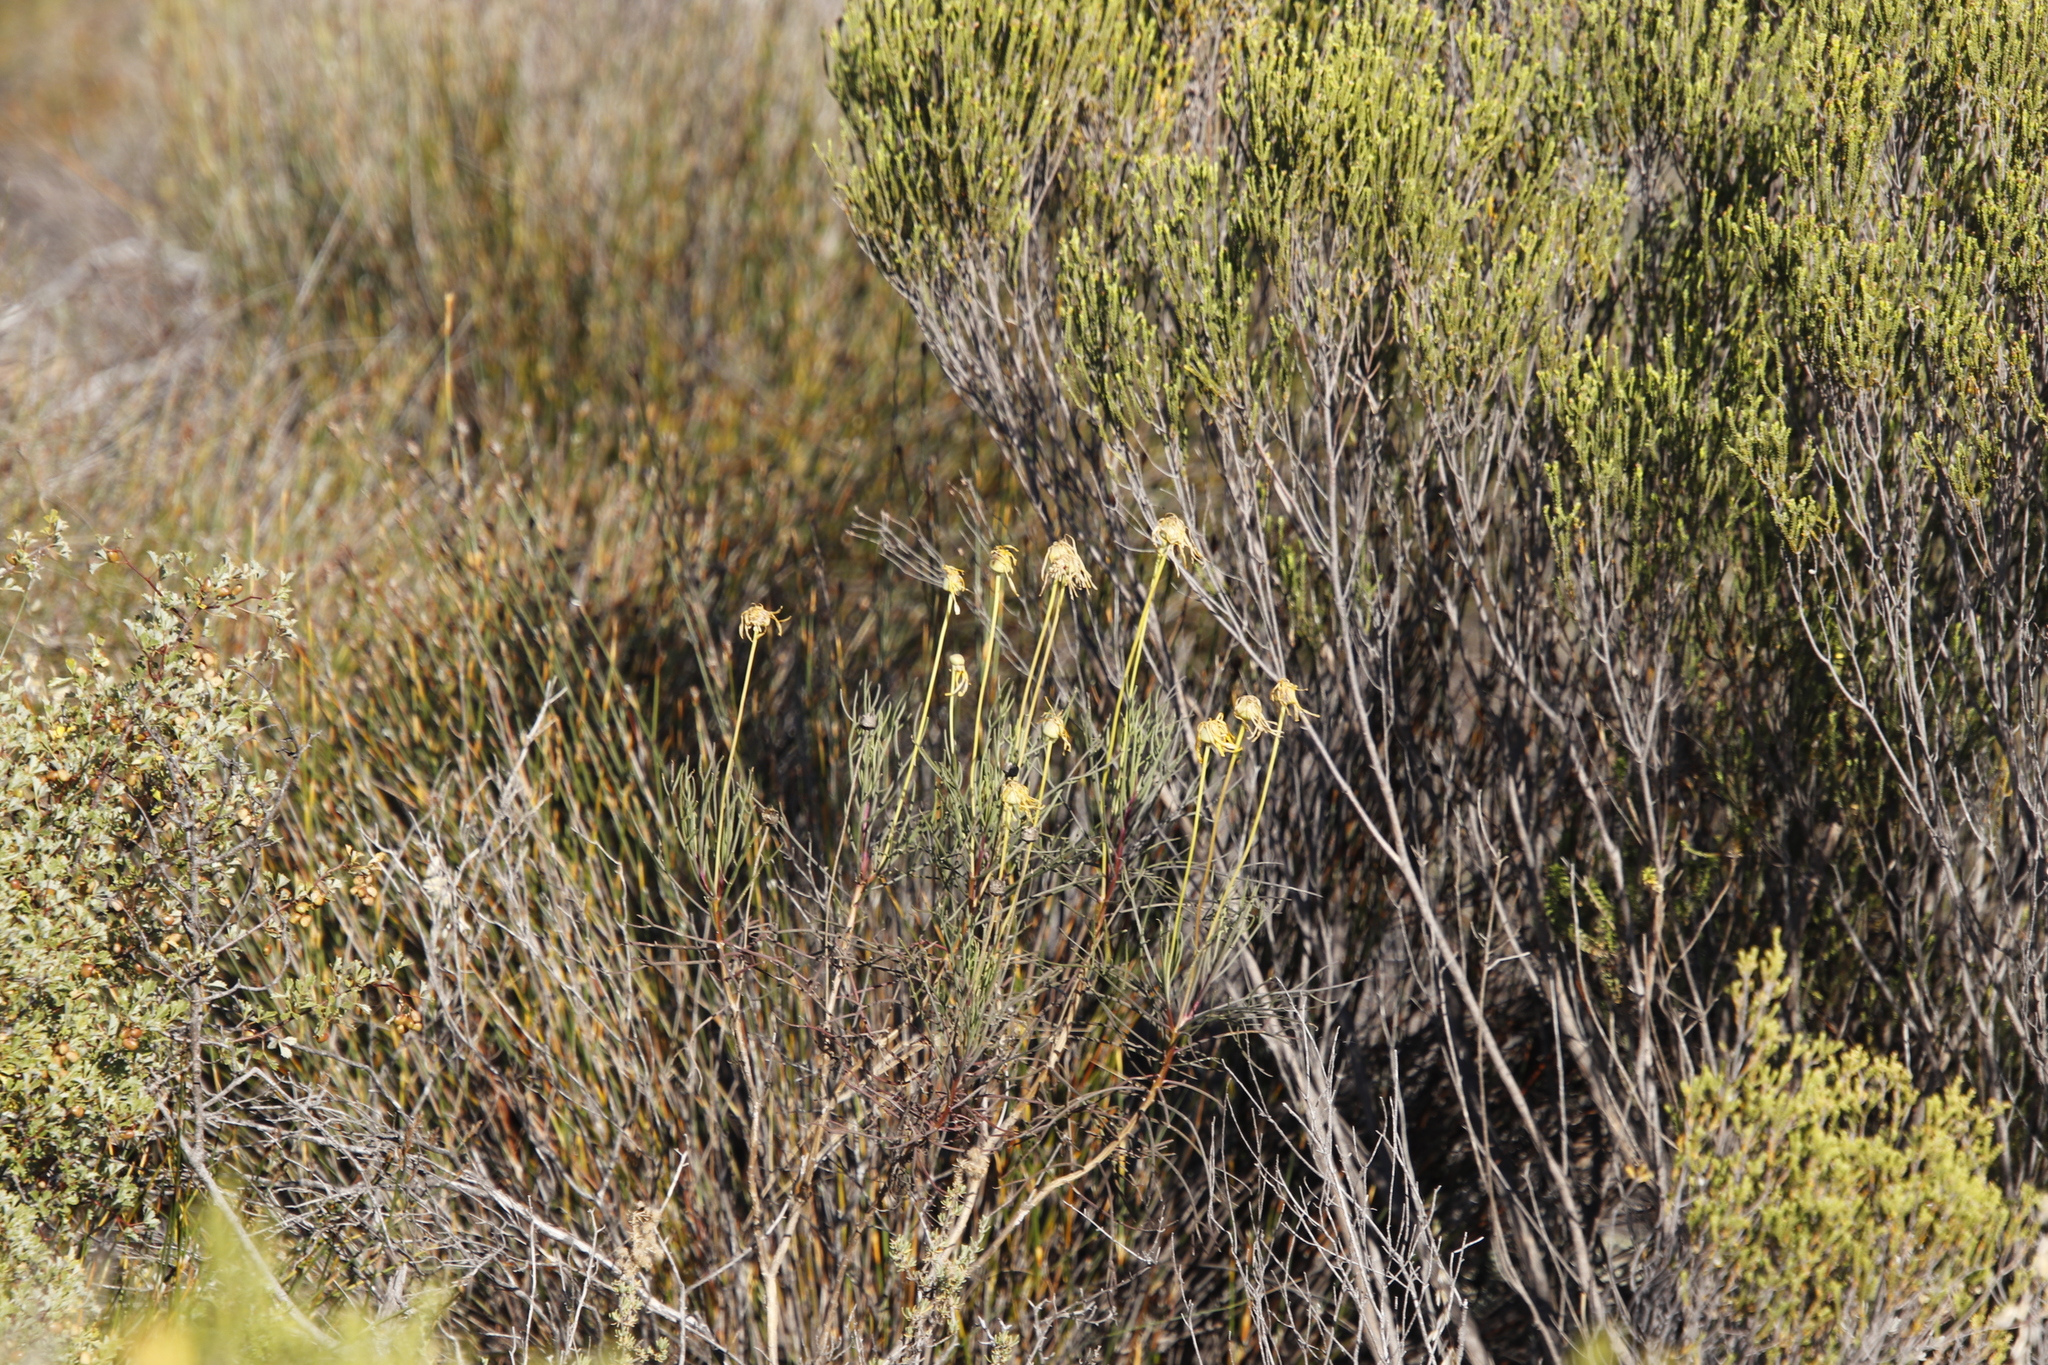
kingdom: Plantae
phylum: Tracheophyta
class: Magnoliopsida
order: Asterales
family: Asteraceae
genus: Euryops
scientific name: Euryops speciosissimus
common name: Clanwilliam daisy
